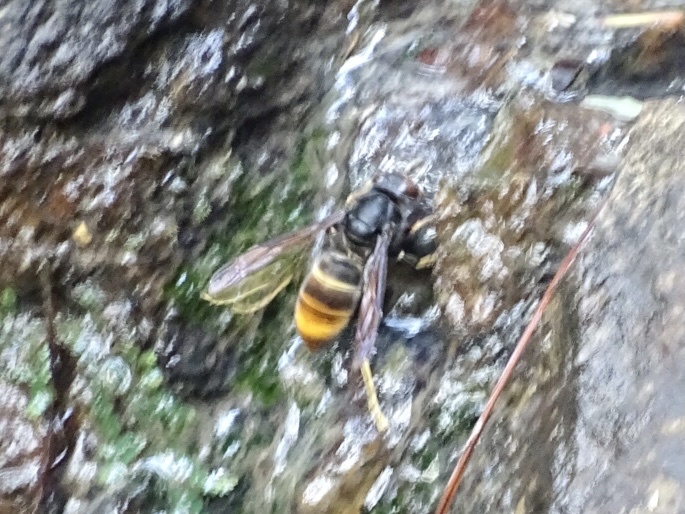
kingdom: Animalia
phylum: Arthropoda
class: Insecta
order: Hymenoptera
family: Vespidae
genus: Vespa
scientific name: Vespa velutina
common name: Asian hornet
